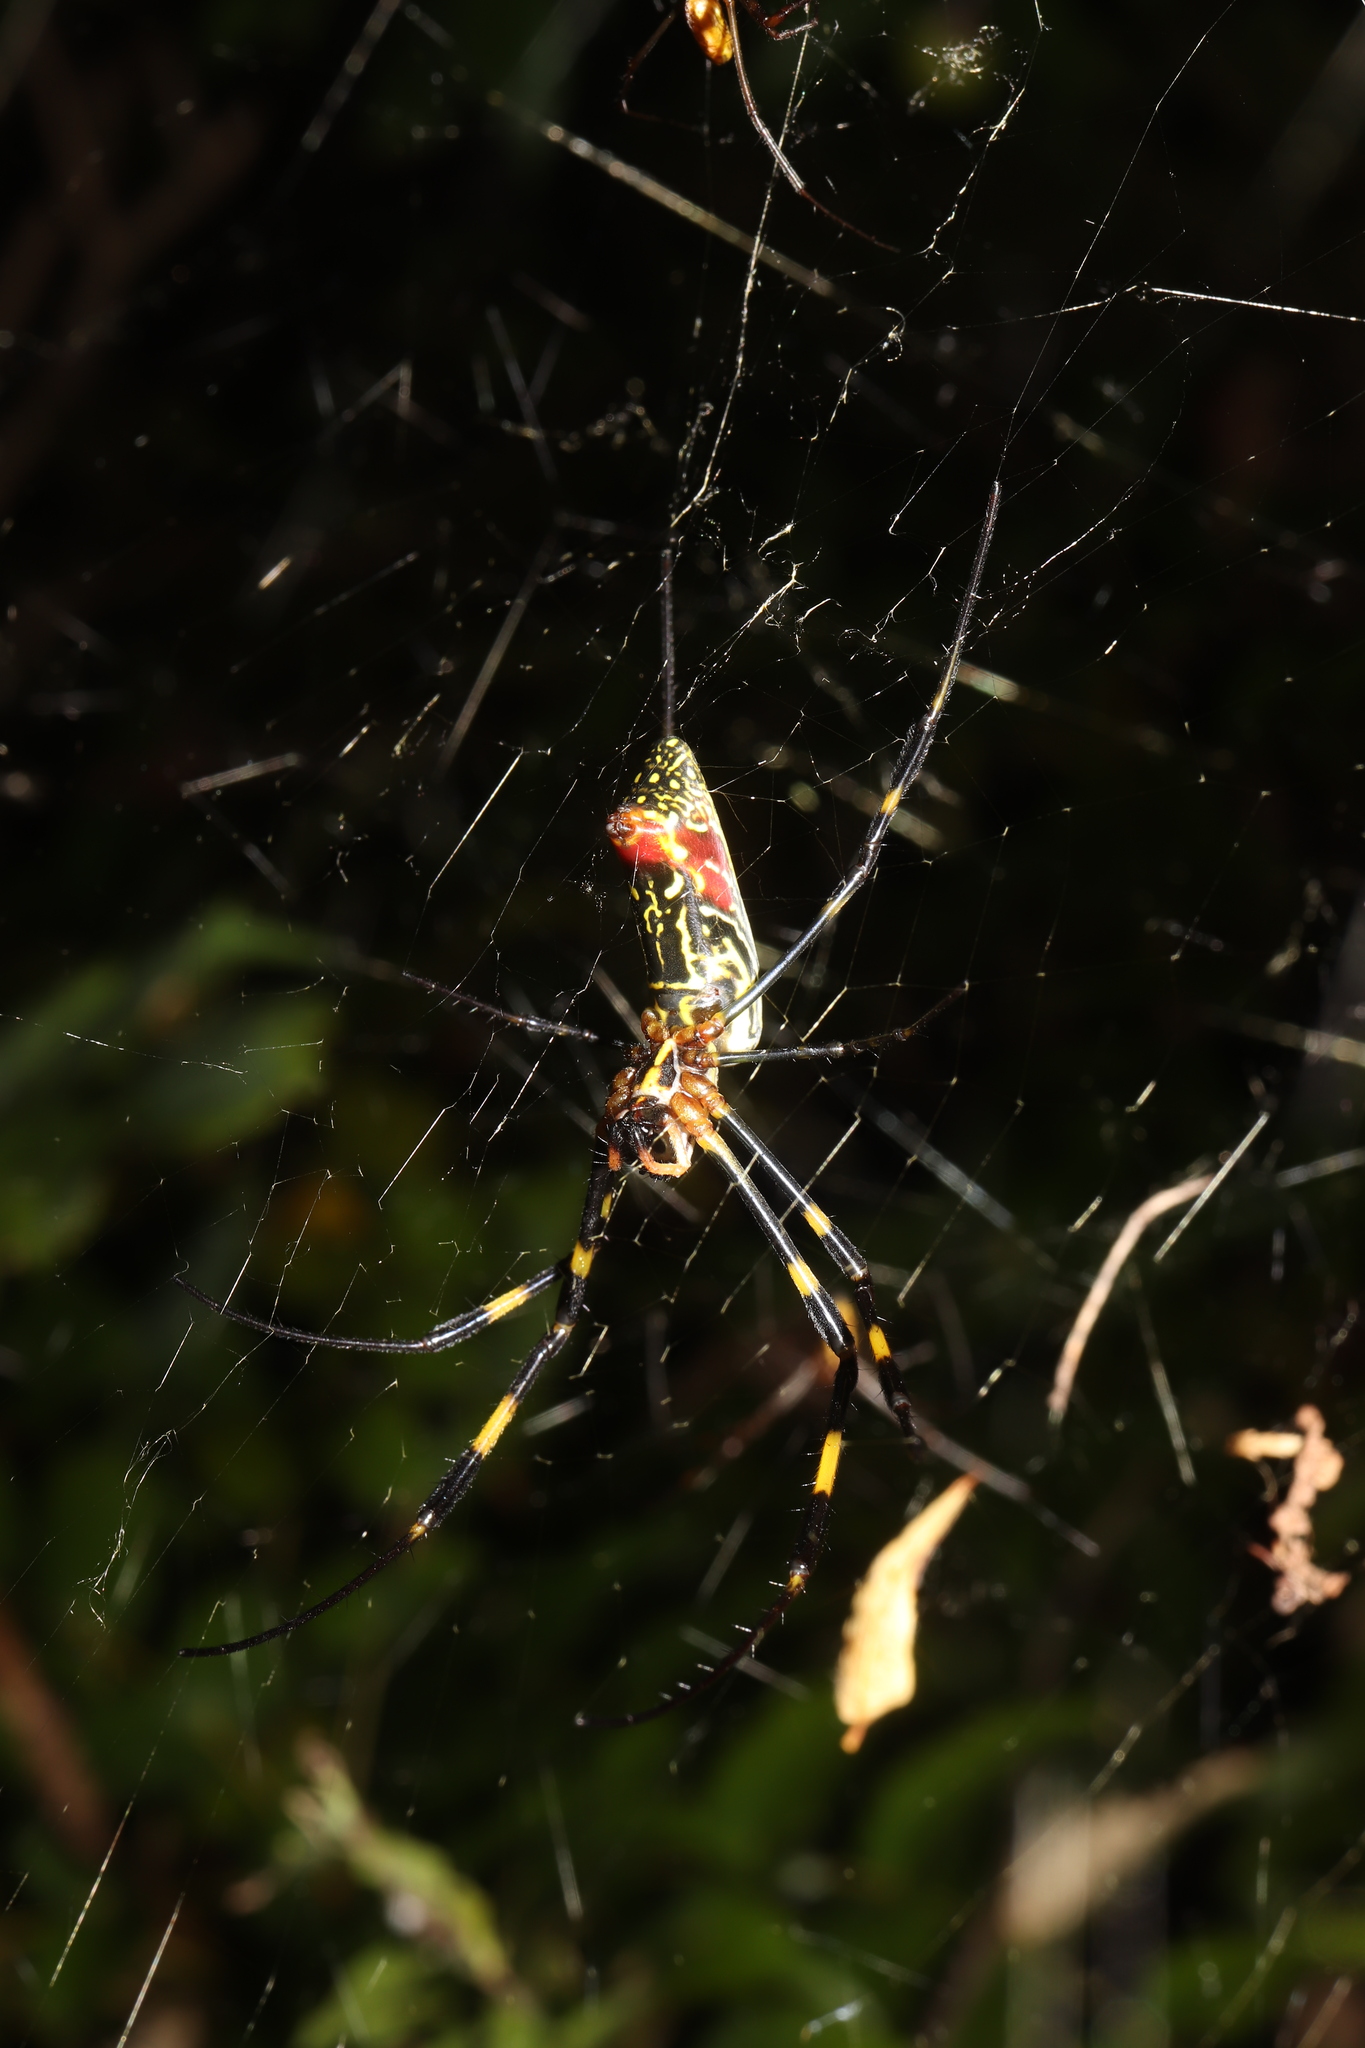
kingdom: Animalia
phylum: Arthropoda
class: Arachnida
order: Araneae
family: Araneidae
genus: Trichonephila
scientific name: Trichonephila clavata
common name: Jorō spider
